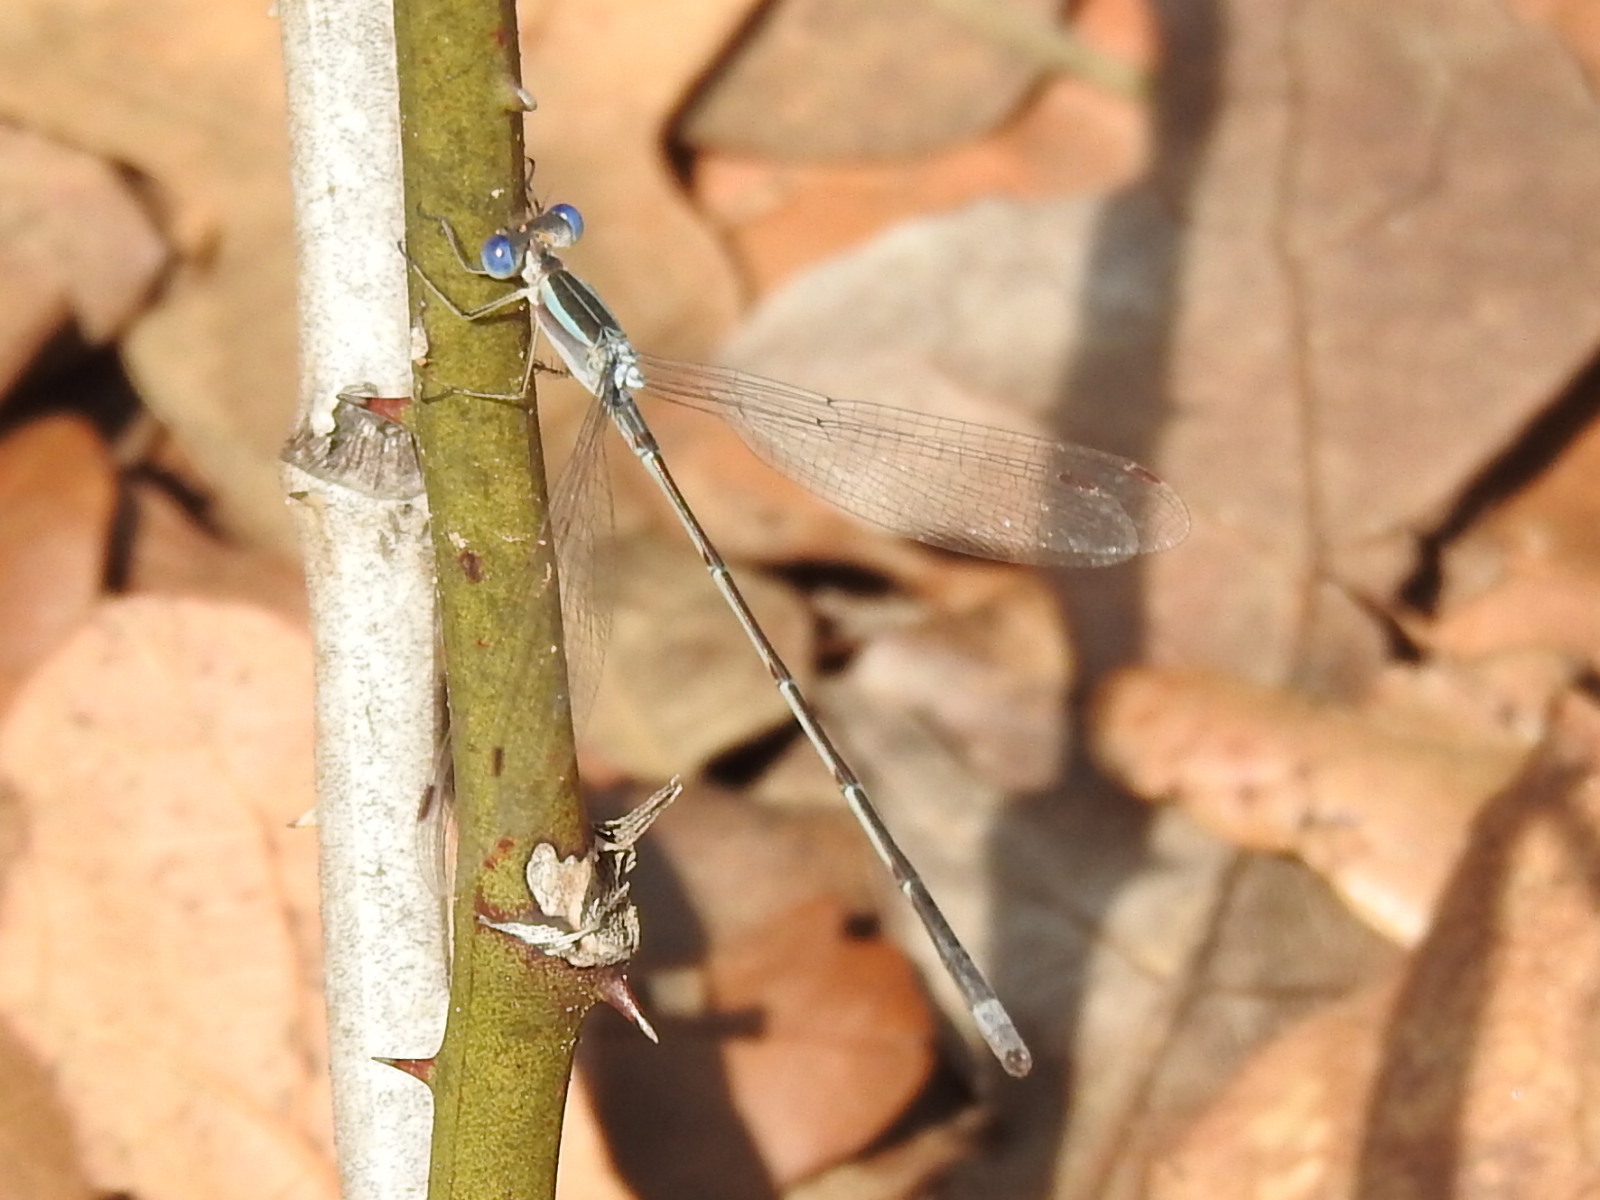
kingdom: Animalia
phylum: Arthropoda
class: Insecta
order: Odonata
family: Lestidae
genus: Lestes
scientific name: Lestes alacer
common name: Plateau spreadwing
